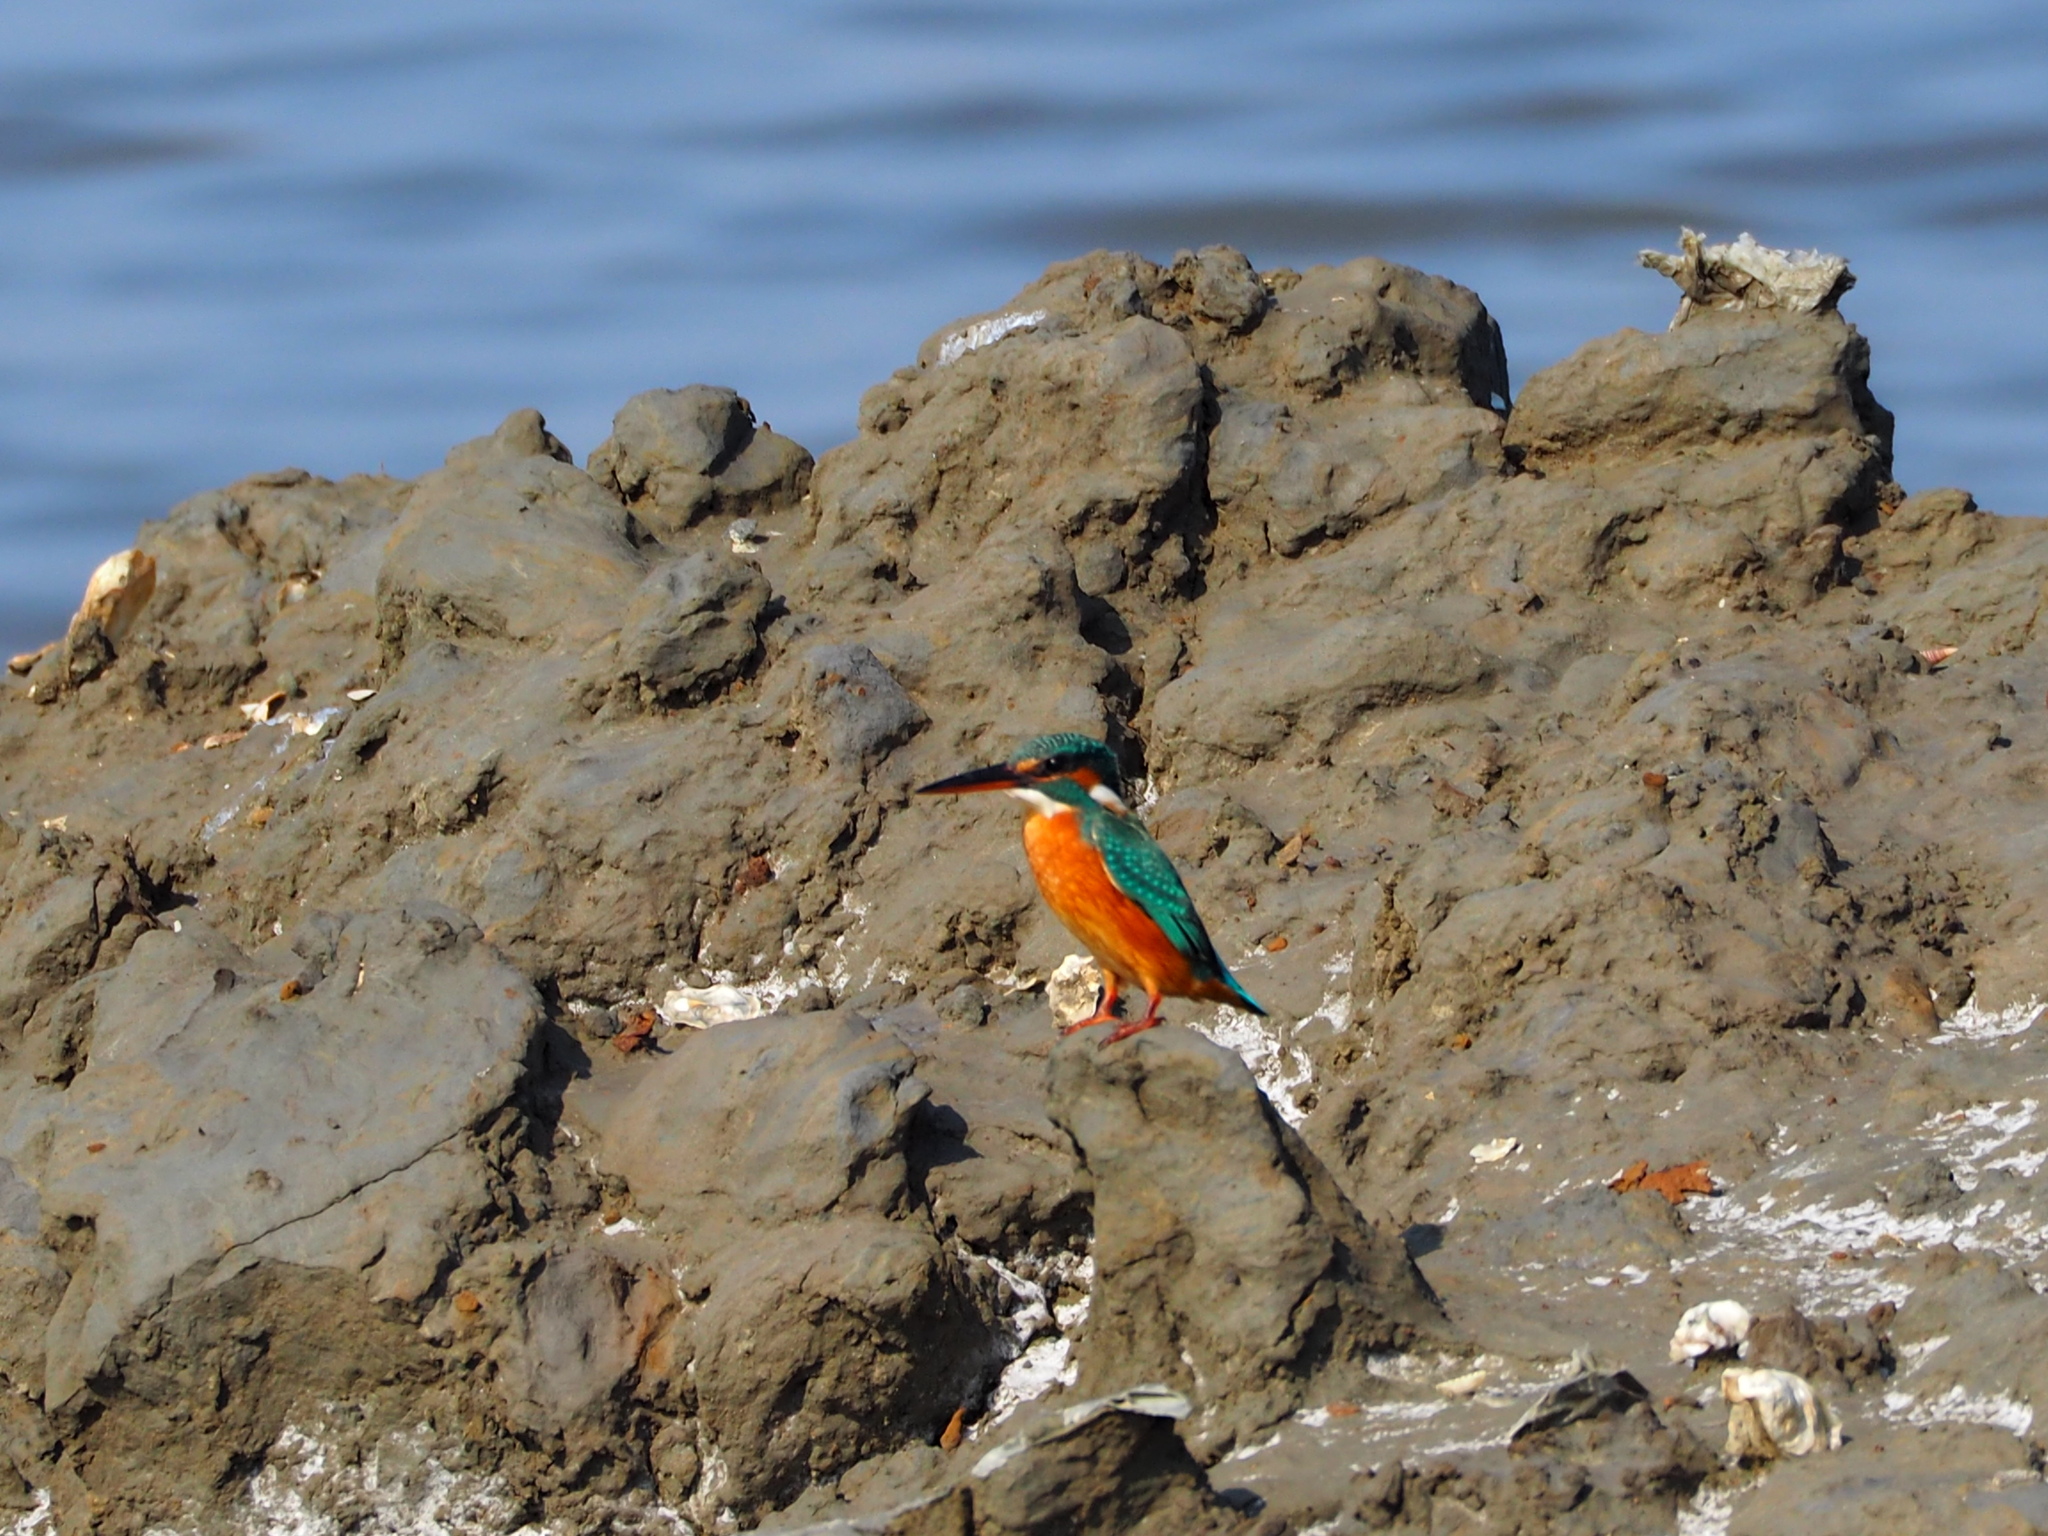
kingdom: Animalia
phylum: Chordata
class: Aves
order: Coraciiformes
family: Alcedinidae
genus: Alcedo
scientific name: Alcedo atthis
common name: Common kingfisher
